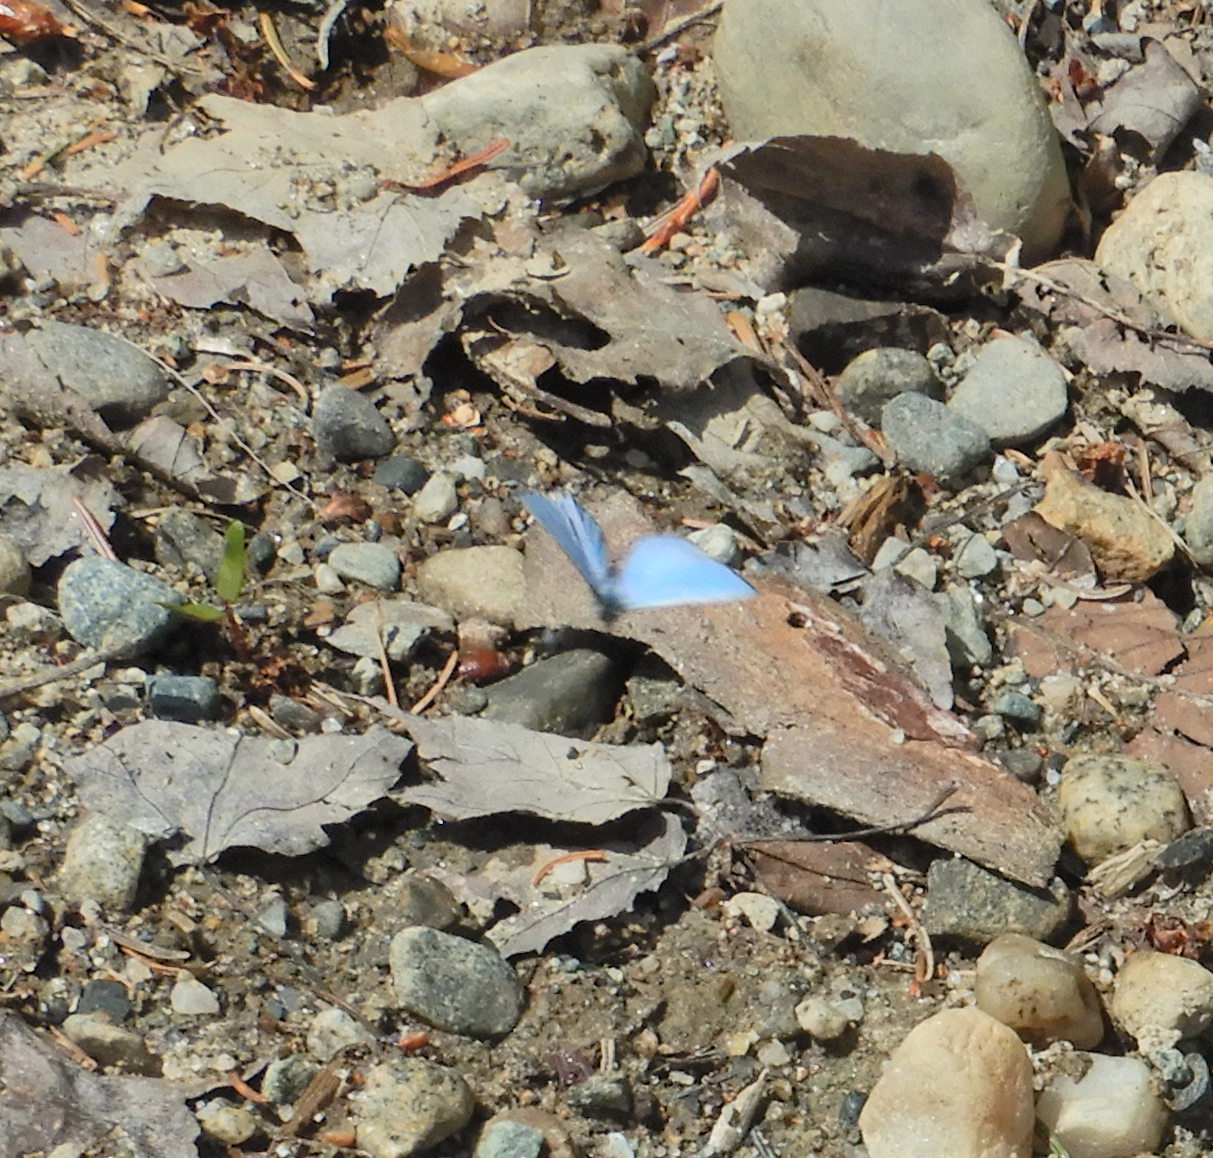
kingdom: Animalia
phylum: Arthropoda
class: Insecta
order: Lepidoptera
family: Lycaenidae
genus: Celastrina
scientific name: Celastrina lucia
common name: Lucia azure
